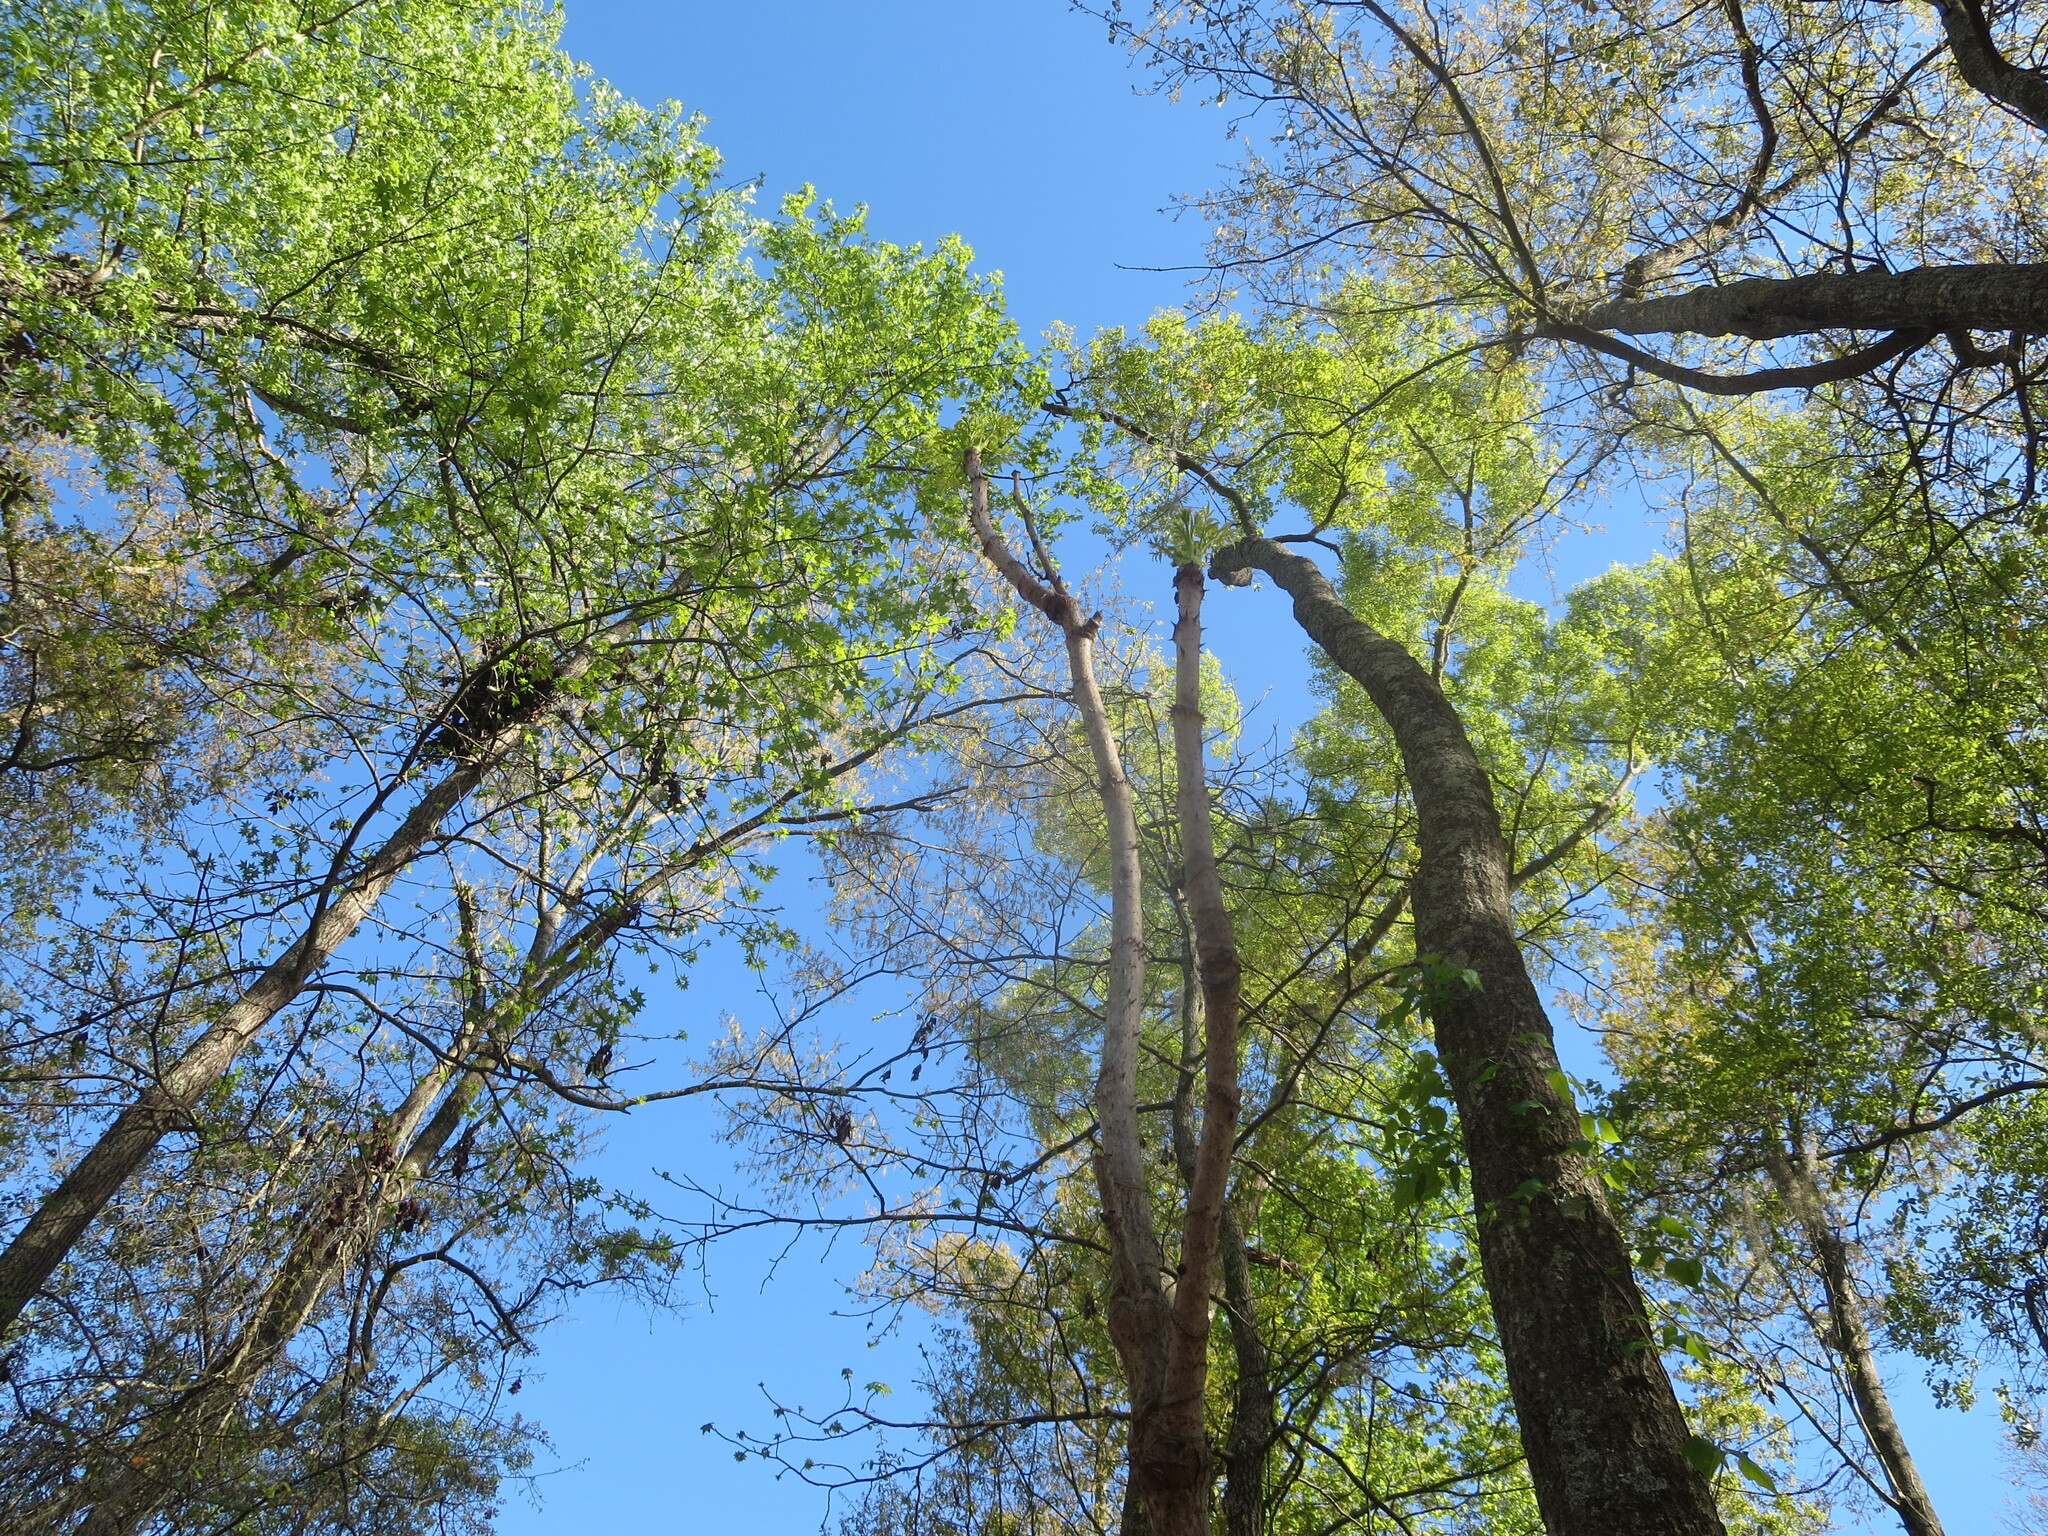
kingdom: Plantae
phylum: Tracheophyta
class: Magnoliopsida
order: Apiales
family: Araliaceae
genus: Aralia
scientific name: Aralia spinosa
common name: Hercules'-club
